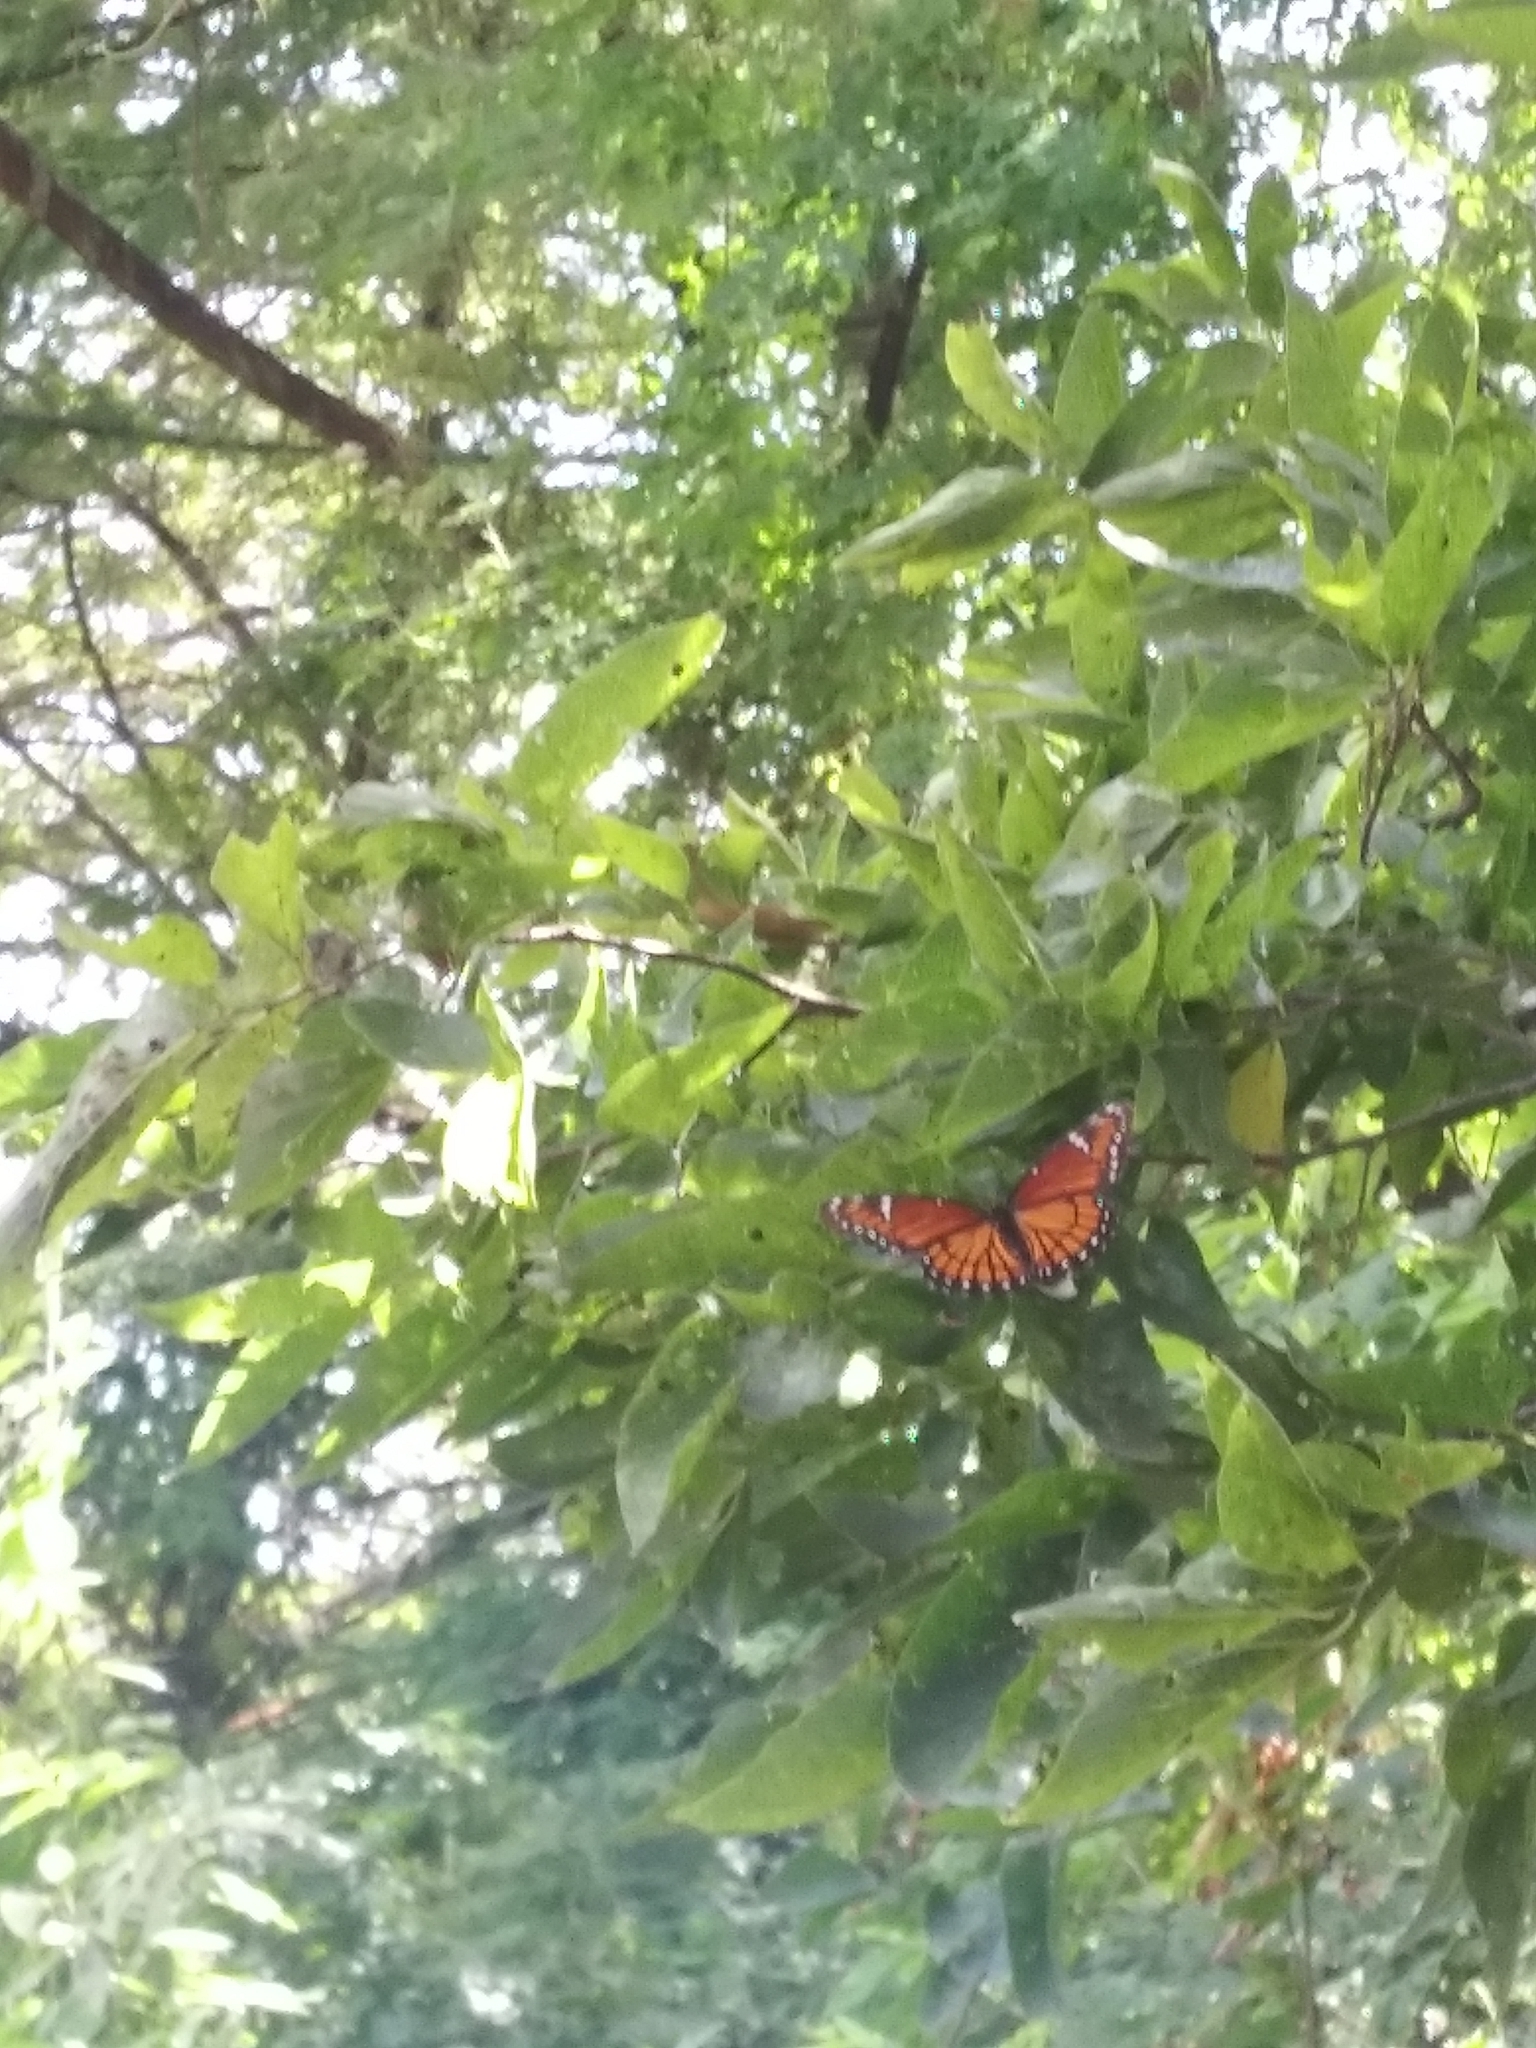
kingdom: Animalia
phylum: Arthropoda
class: Insecta
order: Lepidoptera
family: Nymphalidae
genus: Limenitis
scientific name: Limenitis archippus
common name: Viceroy
